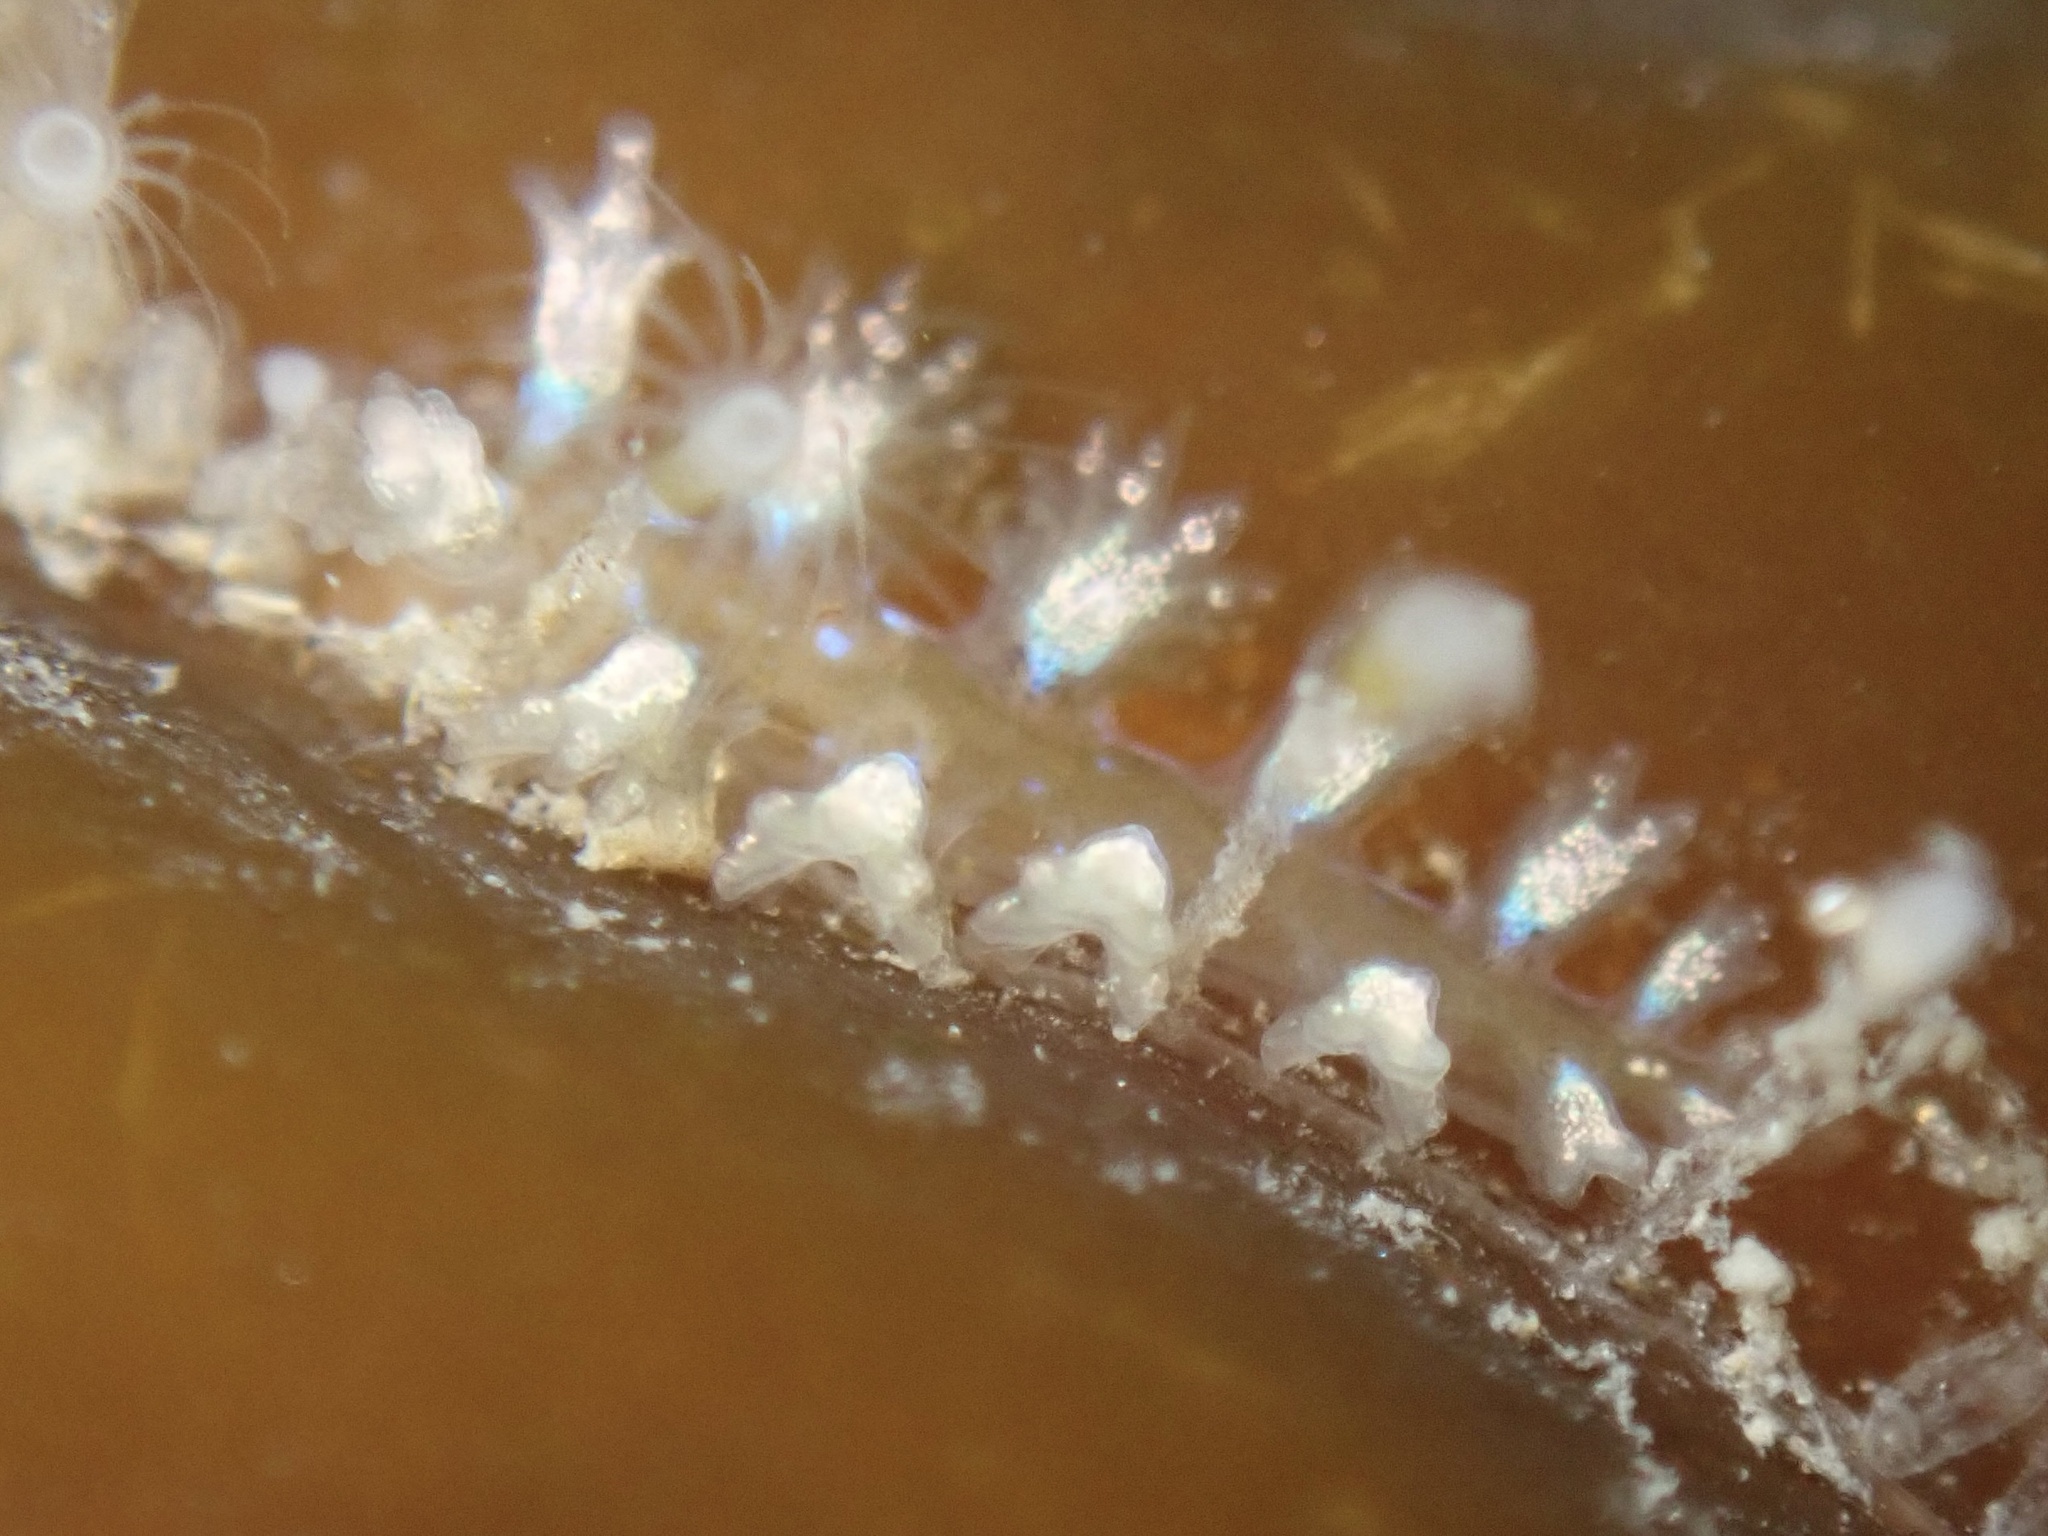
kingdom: Animalia
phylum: Mollusca
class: Gastropoda
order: Nudibranchia
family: Hancockiidae
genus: Hancockia
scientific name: Hancockia californica
